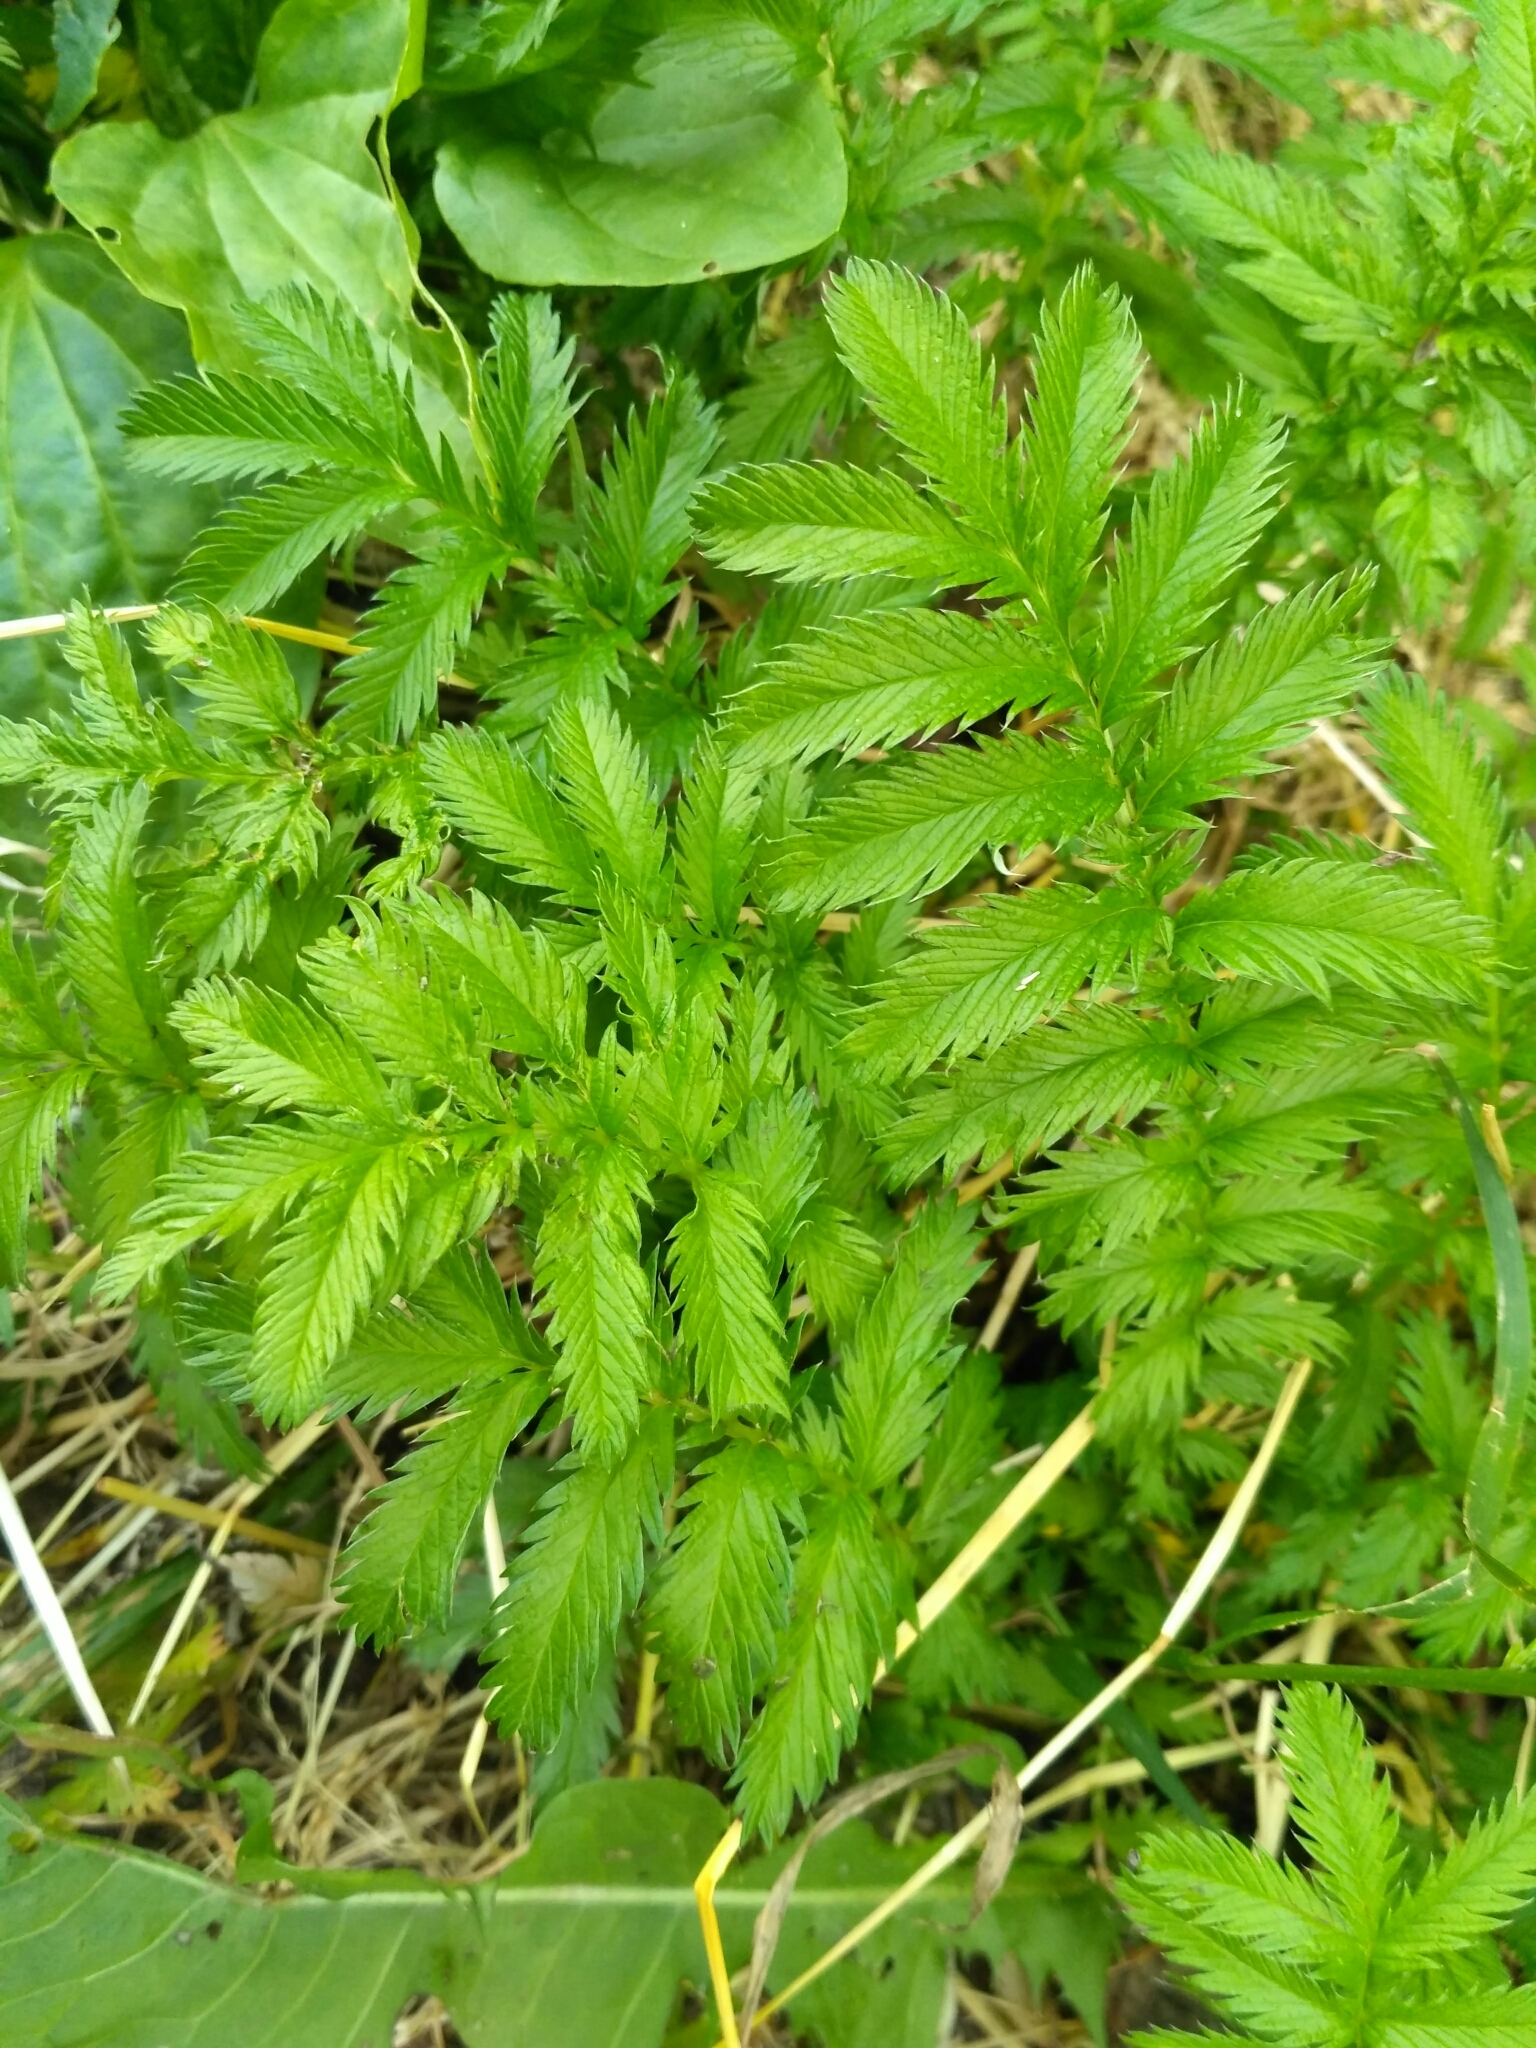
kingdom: Plantae
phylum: Tracheophyta
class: Magnoliopsida
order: Rosales
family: Rosaceae
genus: Argentina
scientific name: Argentina anserina
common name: Common silverweed
